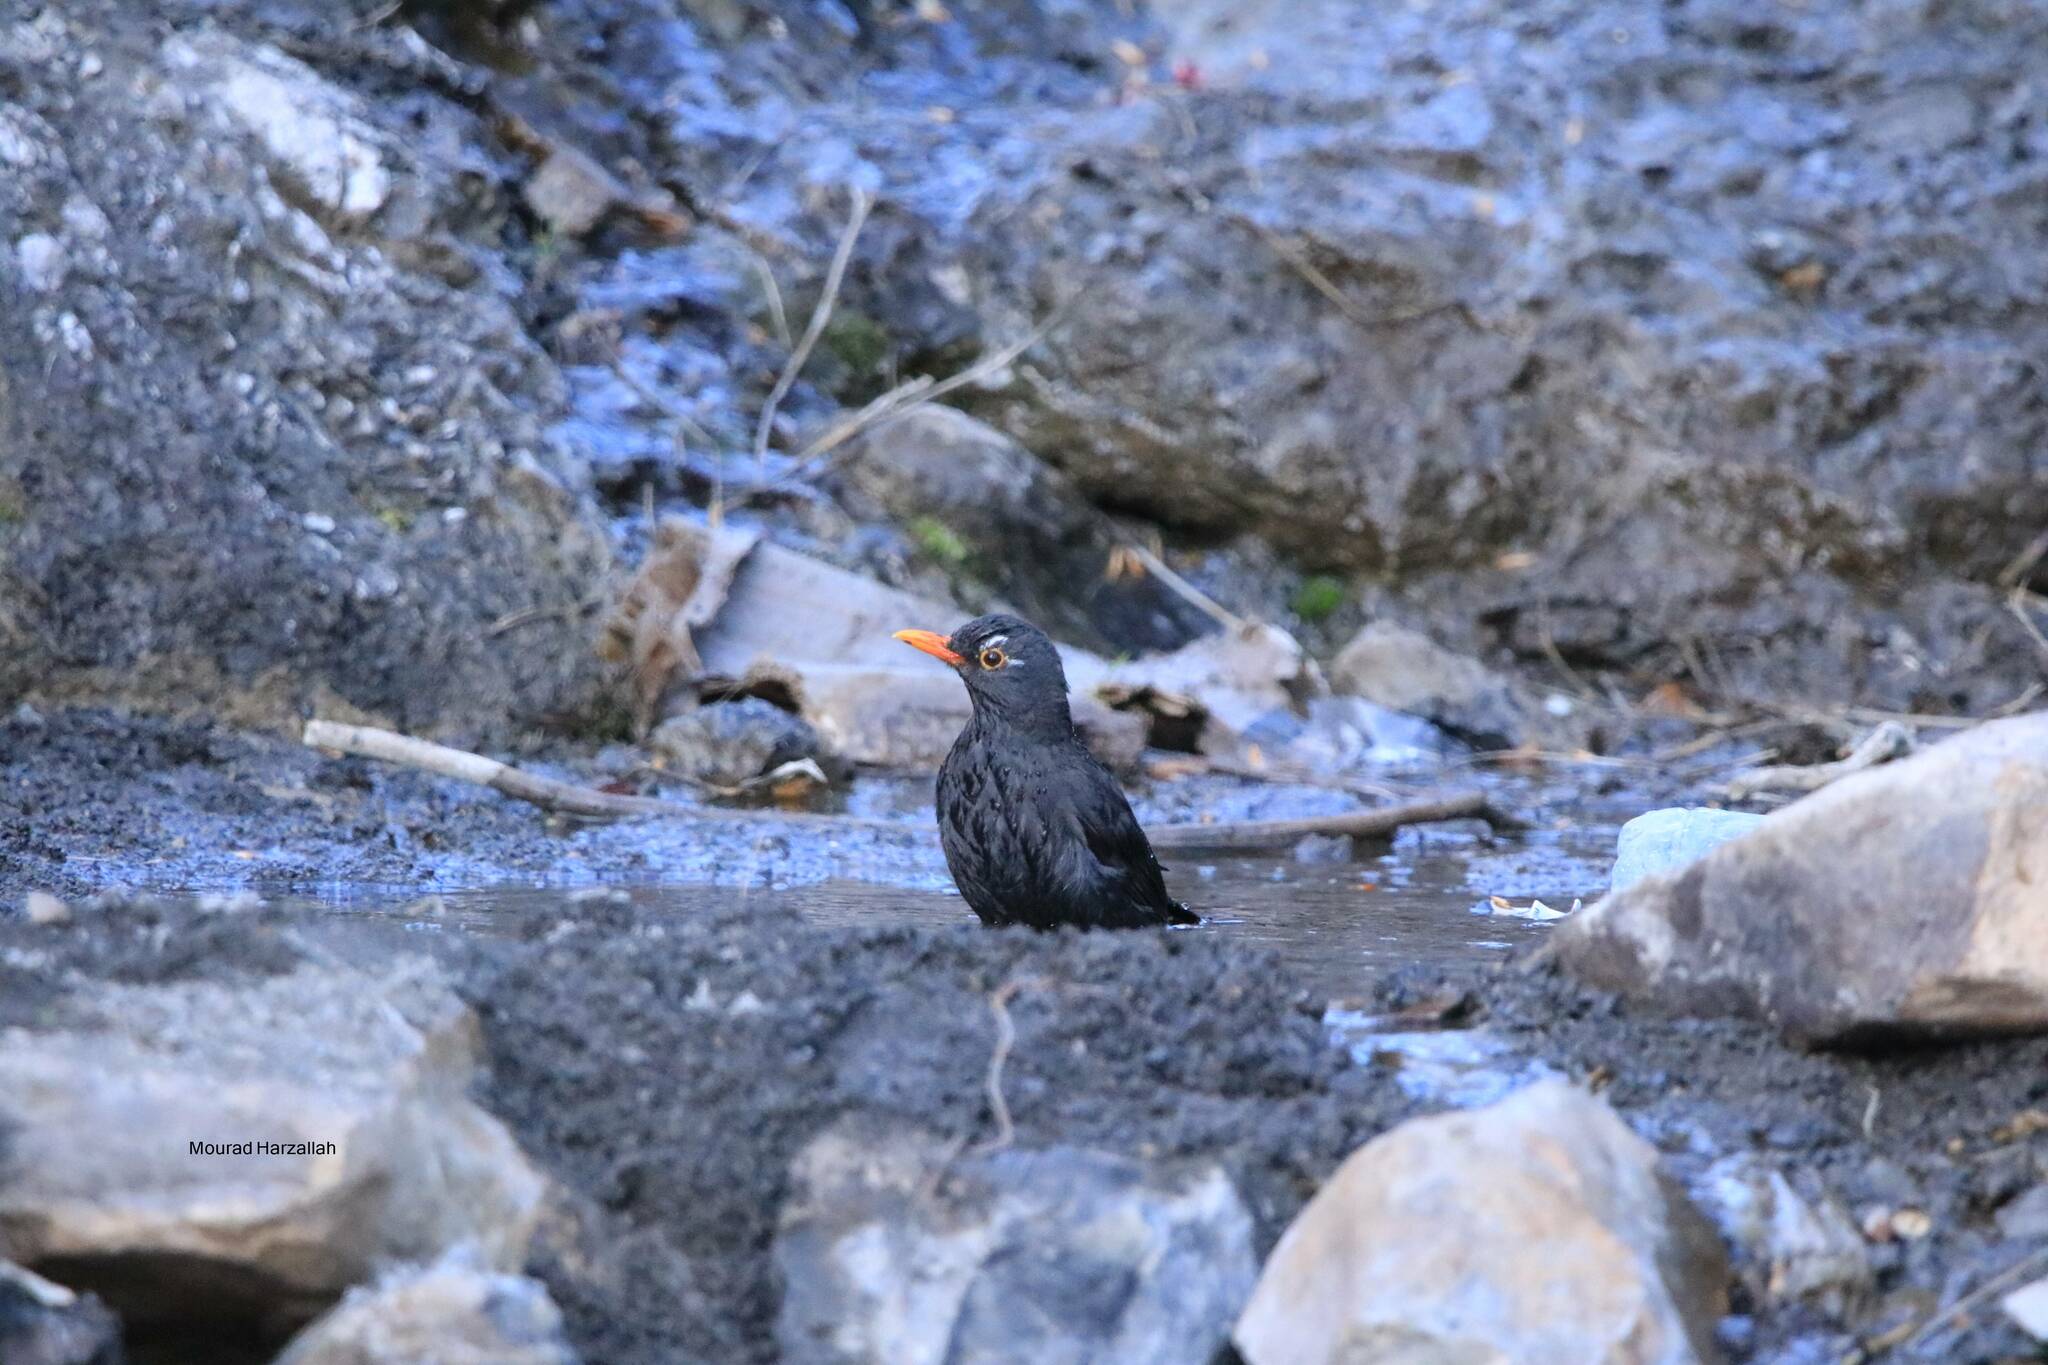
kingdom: Animalia
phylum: Chordata
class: Aves
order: Passeriformes
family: Turdidae
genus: Turdus
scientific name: Turdus merula
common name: Common blackbird
